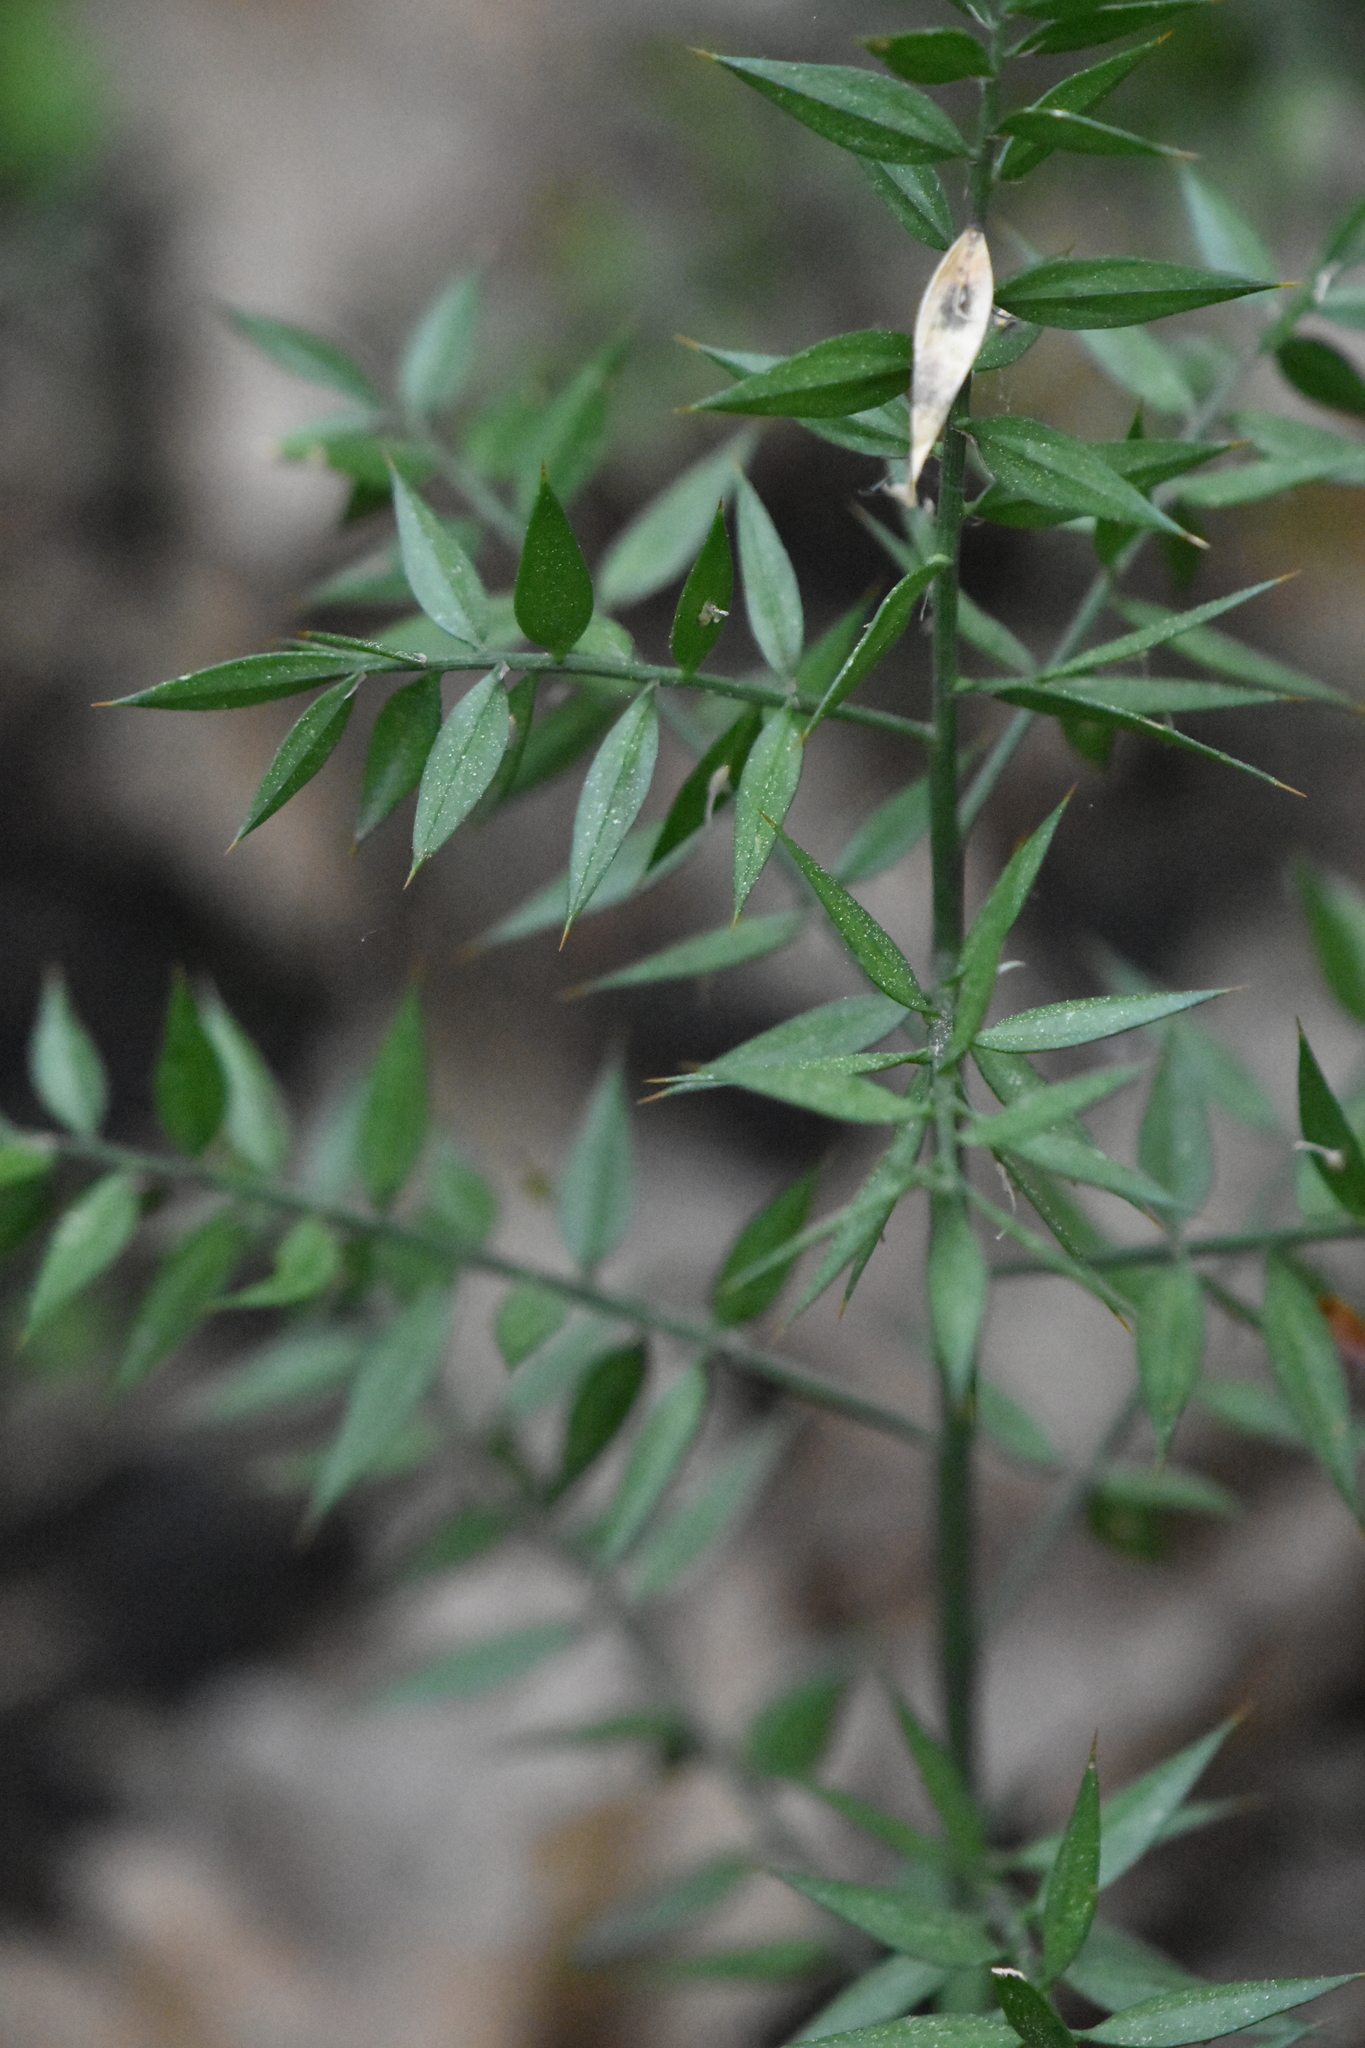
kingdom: Plantae
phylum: Tracheophyta
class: Liliopsida
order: Asparagales
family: Asparagaceae
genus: Ruscus
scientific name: Ruscus aculeatus
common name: Butcher's-broom
